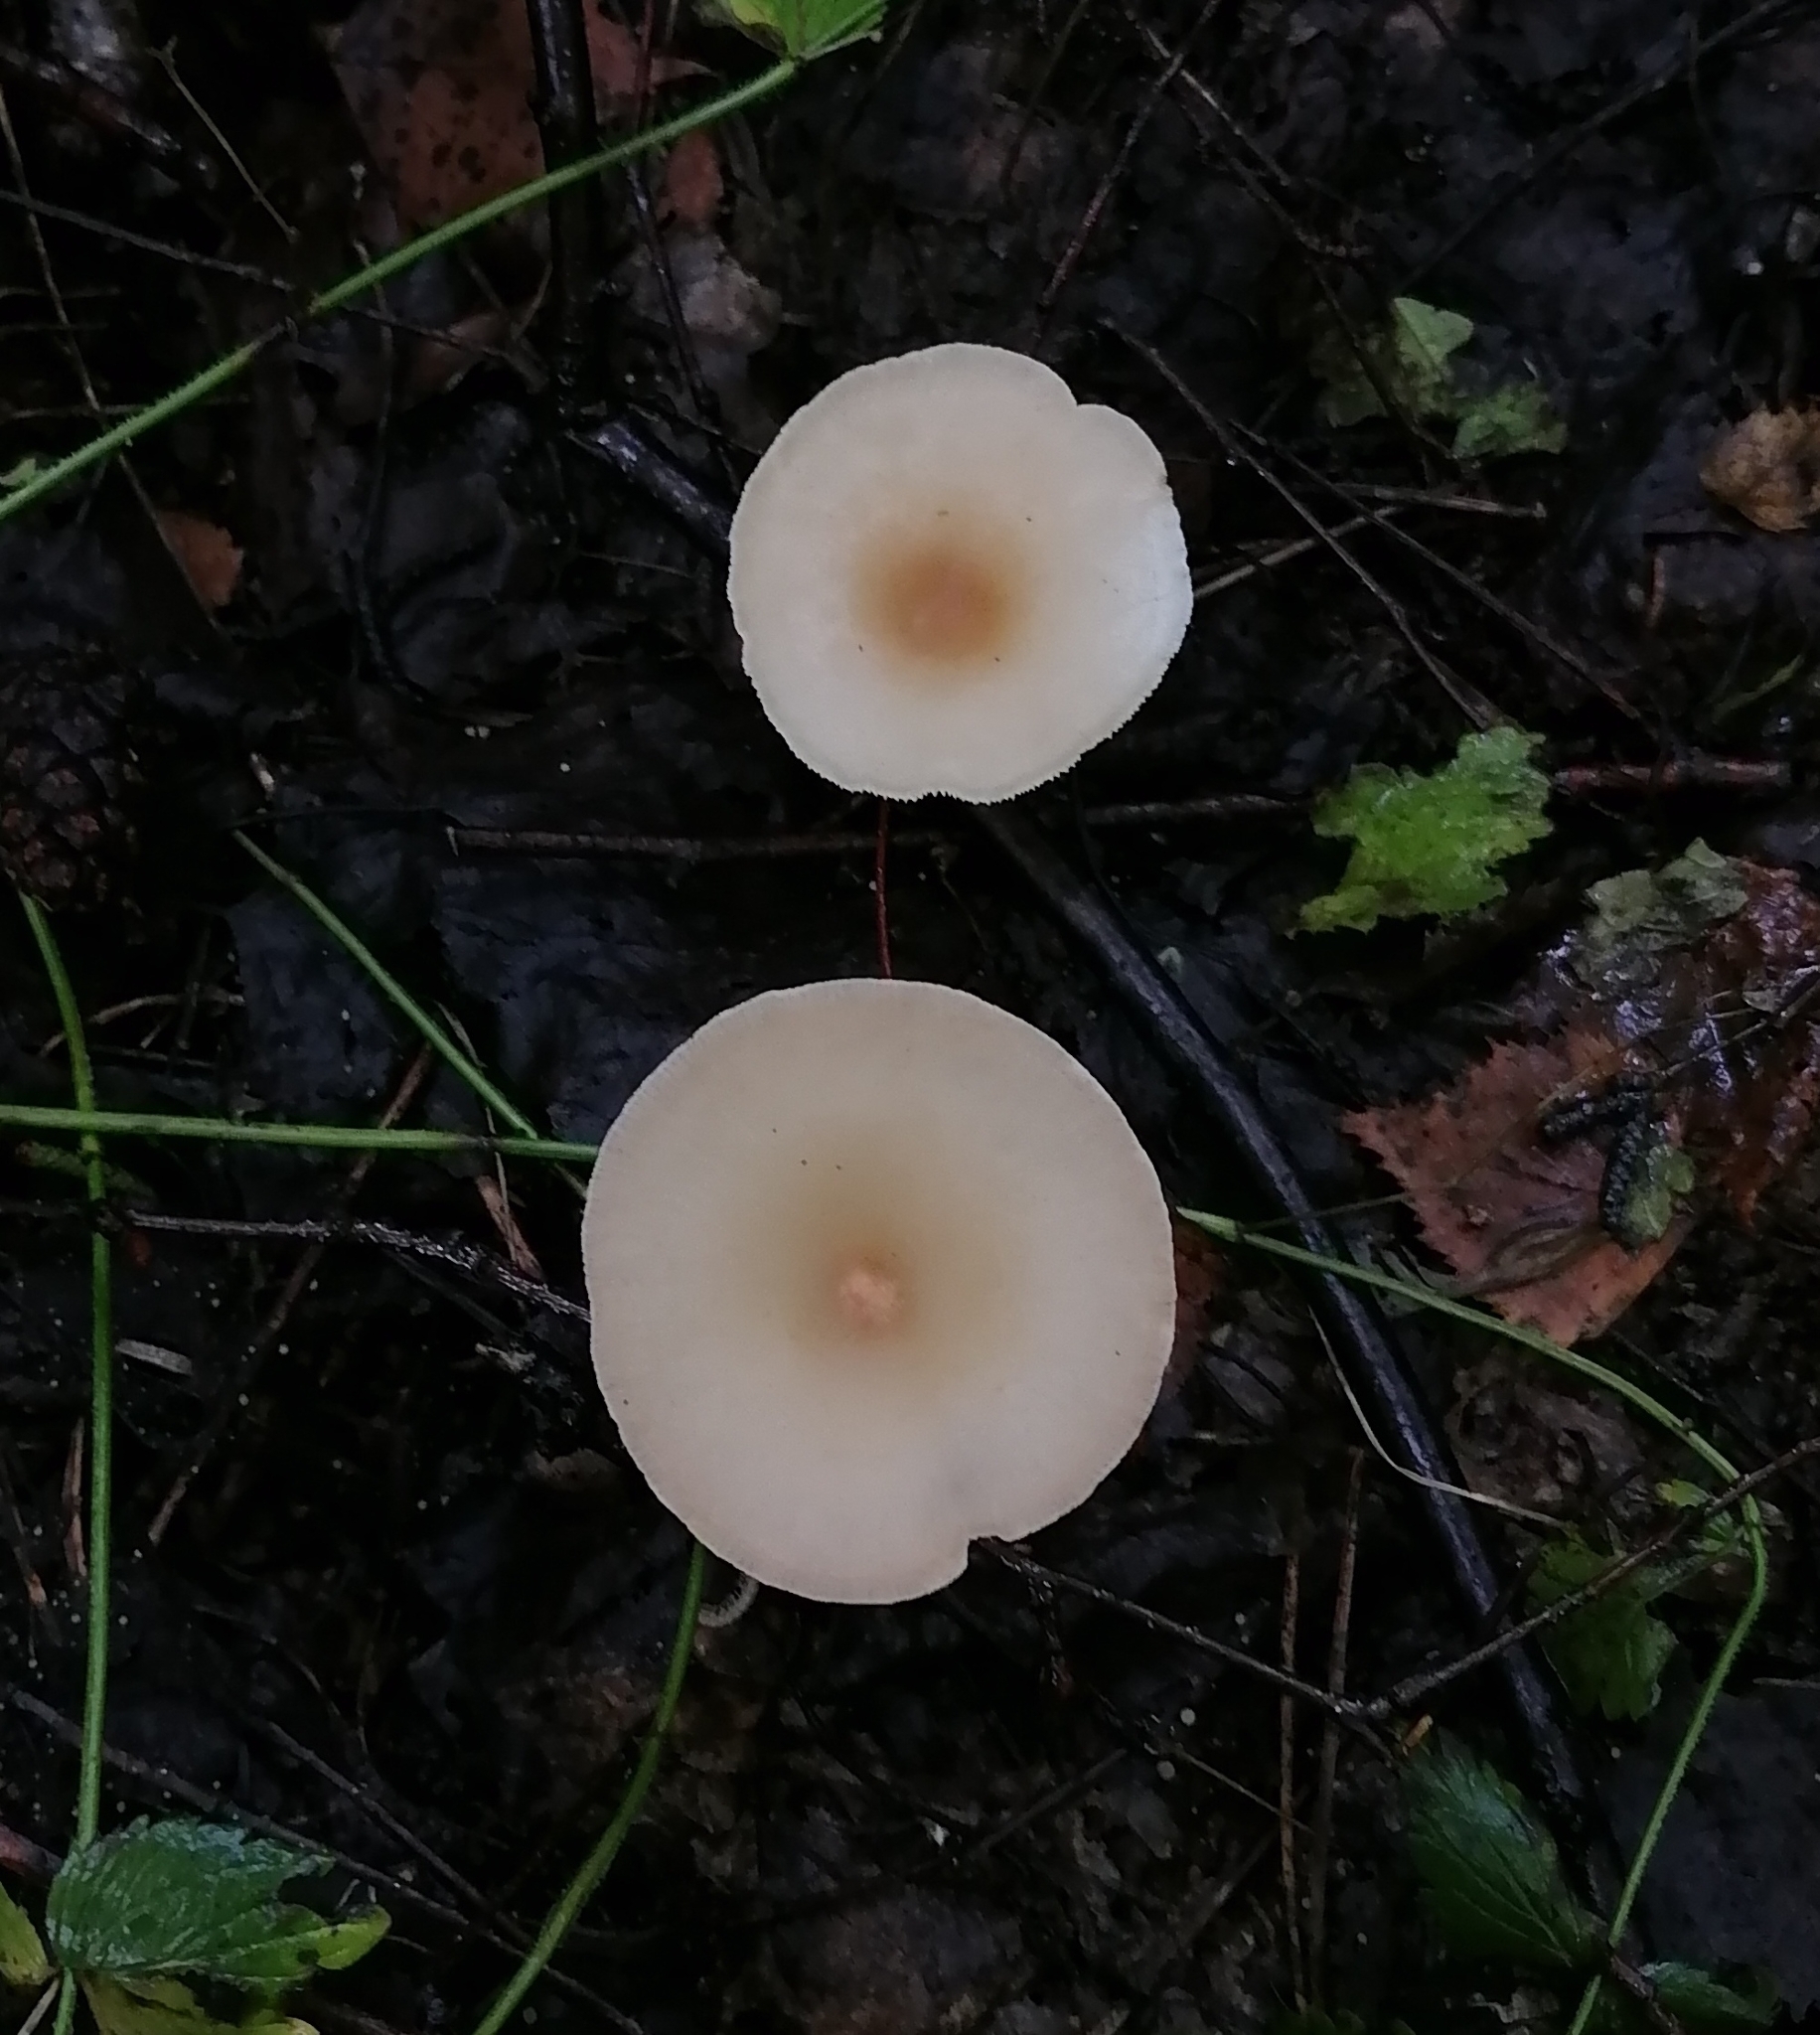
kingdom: Fungi
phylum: Basidiomycota
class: Agaricomycetes
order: Agaricales
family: Tricholomataceae
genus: Infundibulicybe
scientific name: Infundibulicybe gibba
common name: Common funnel
